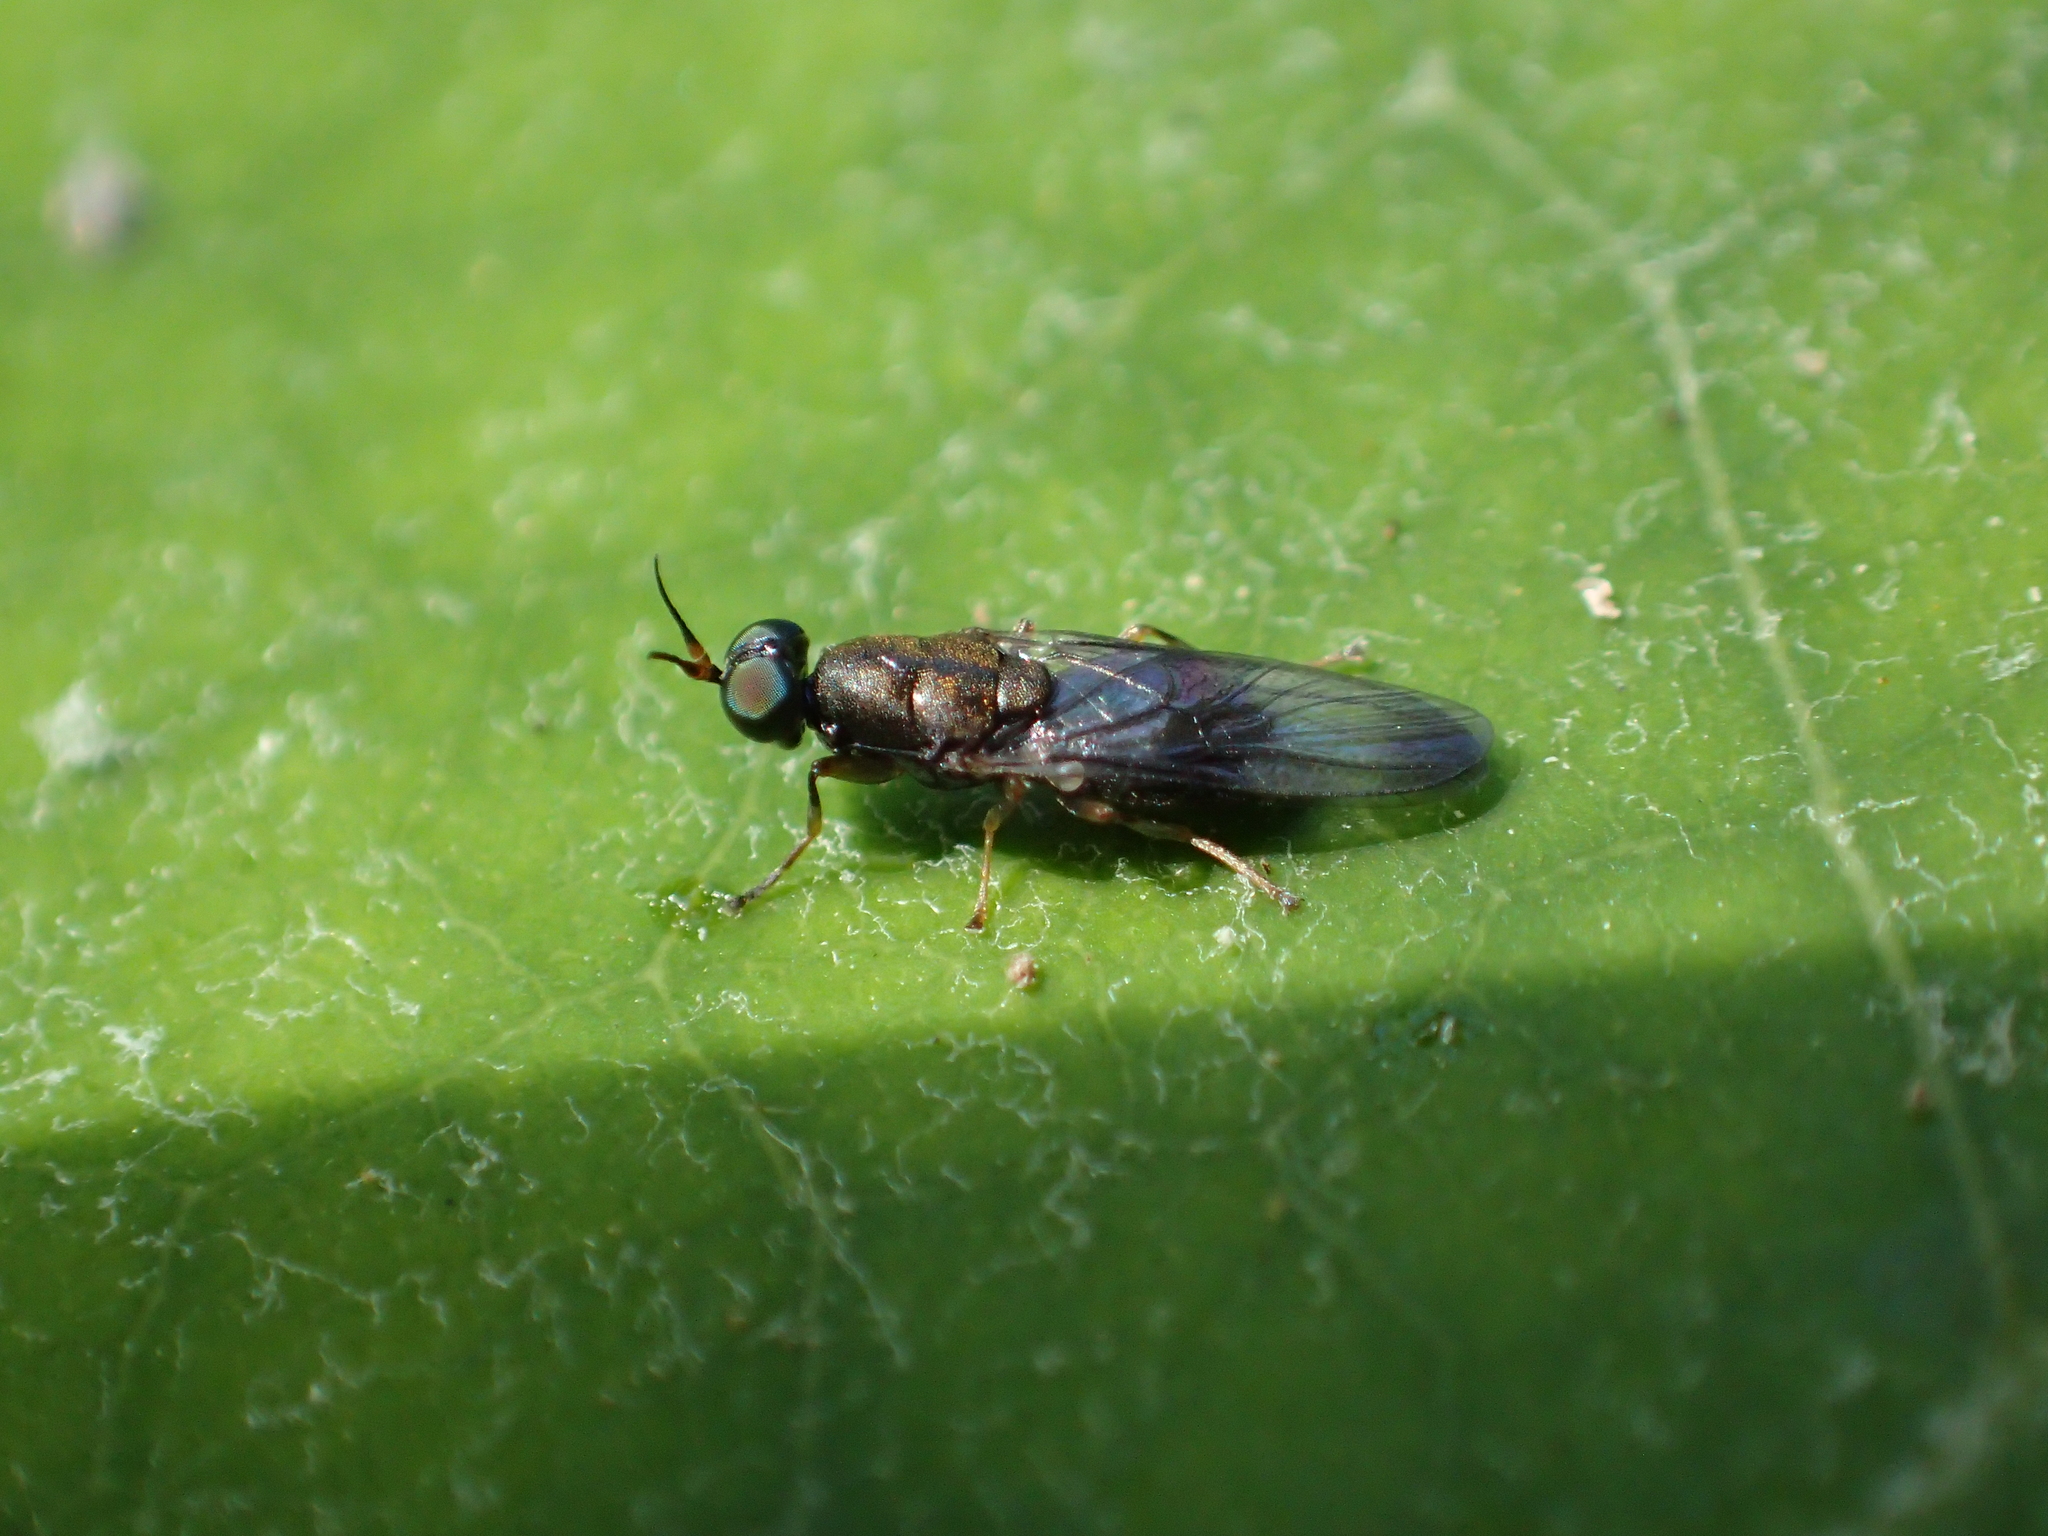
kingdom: Animalia
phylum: Arthropoda
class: Insecta
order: Diptera
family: Stratiomyidae
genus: Dysbiota
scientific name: Dysbiota peregrina
